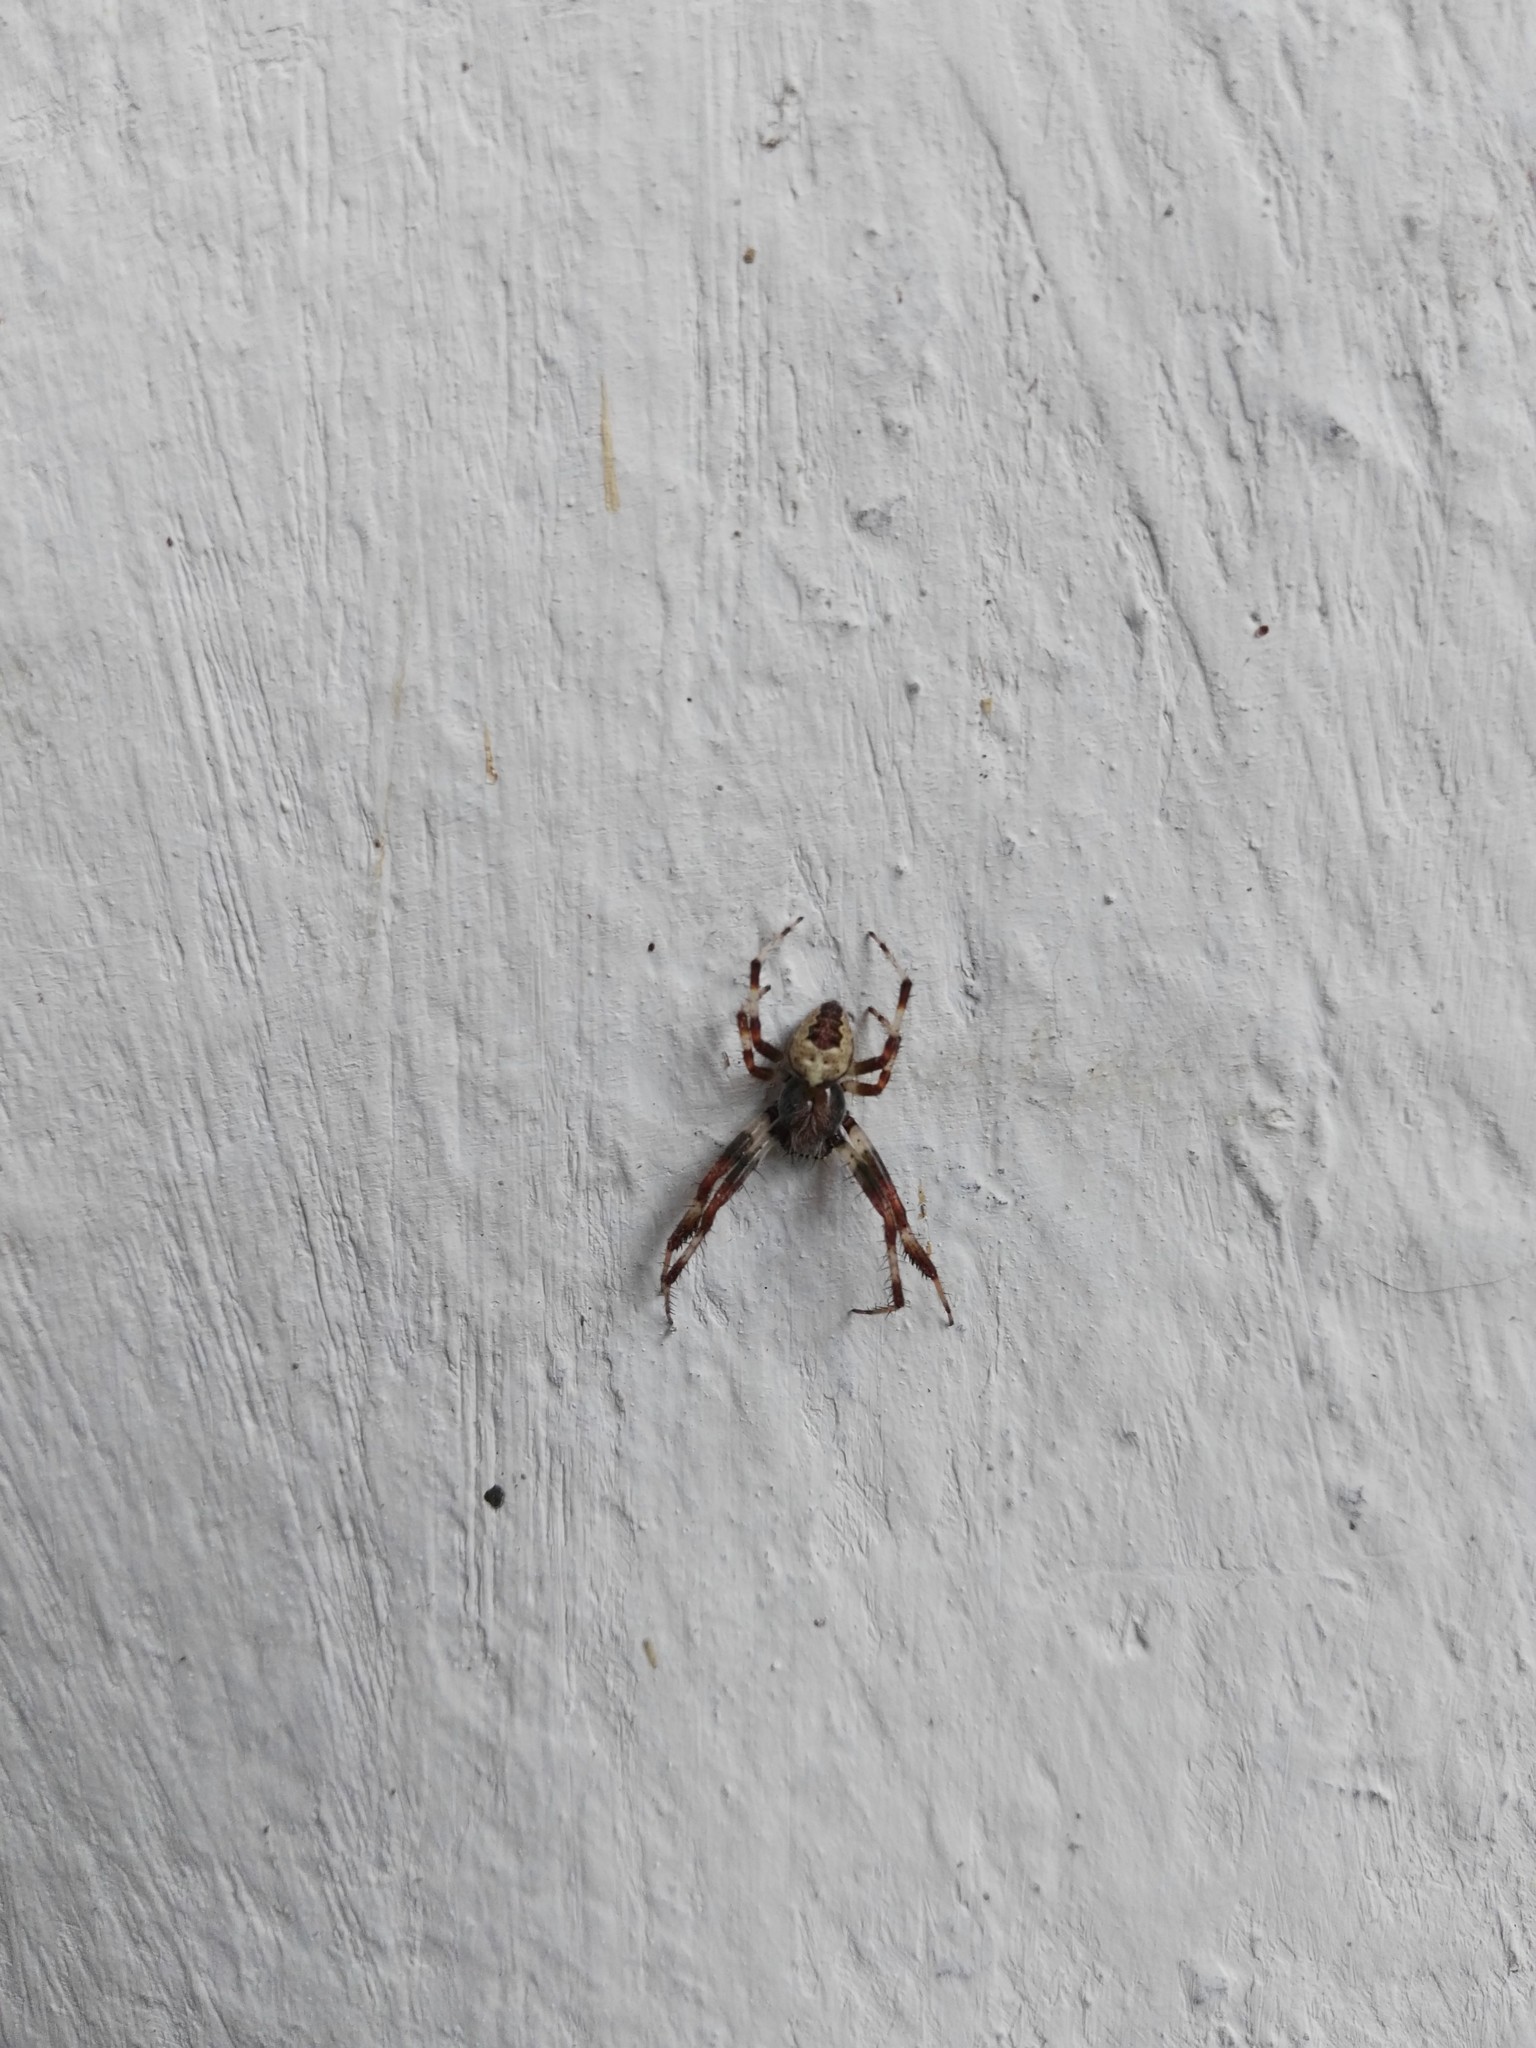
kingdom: Animalia
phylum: Arthropoda
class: Arachnida
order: Araneae
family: Araneidae
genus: Araneus
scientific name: Araneus marmoreus
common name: Marbled orbweaver
